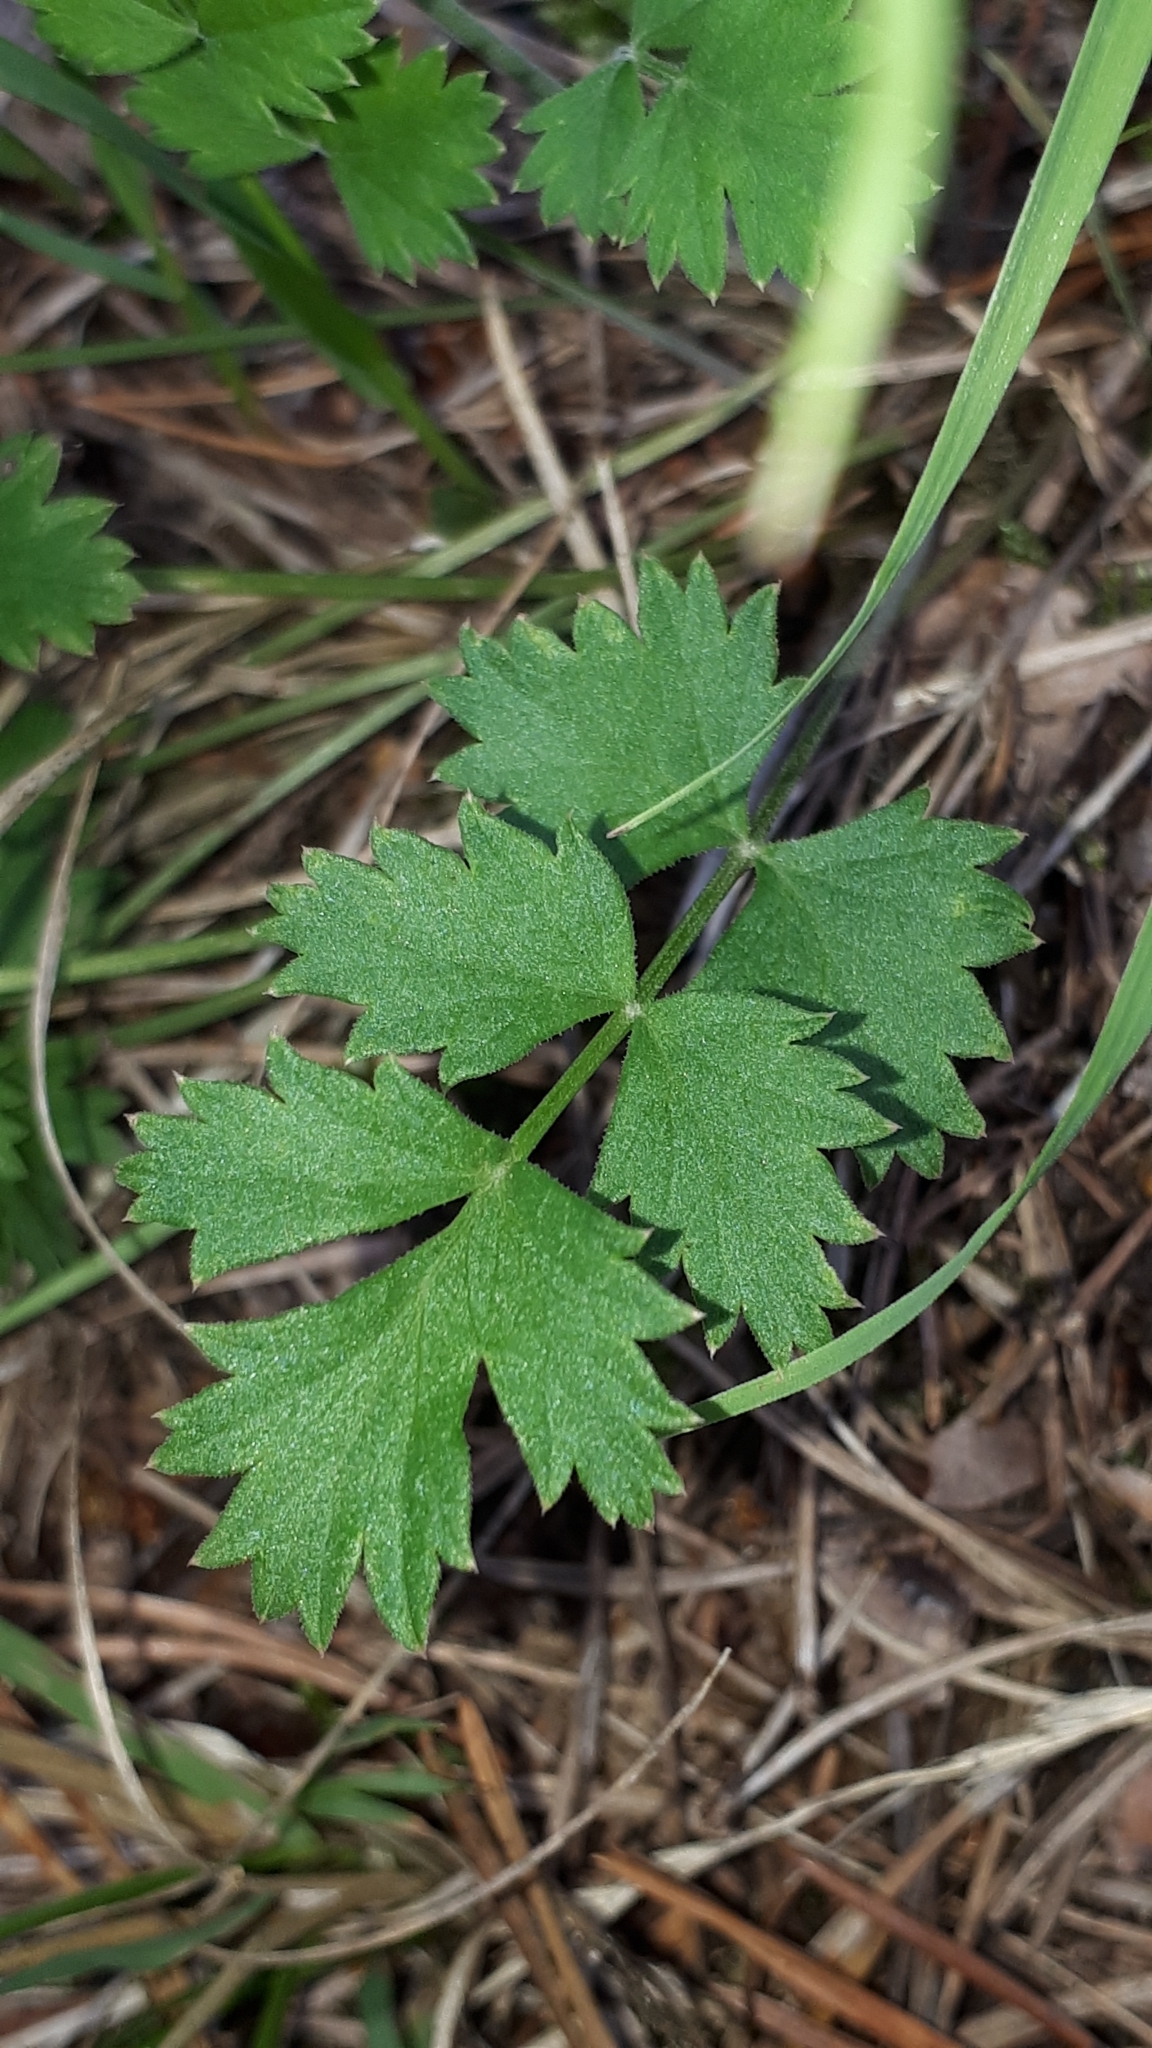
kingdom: Plantae
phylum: Tracheophyta
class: Magnoliopsida
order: Apiales
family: Apiaceae
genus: Pimpinella
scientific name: Pimpinella saxifraga
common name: Burnet-saxifrage
